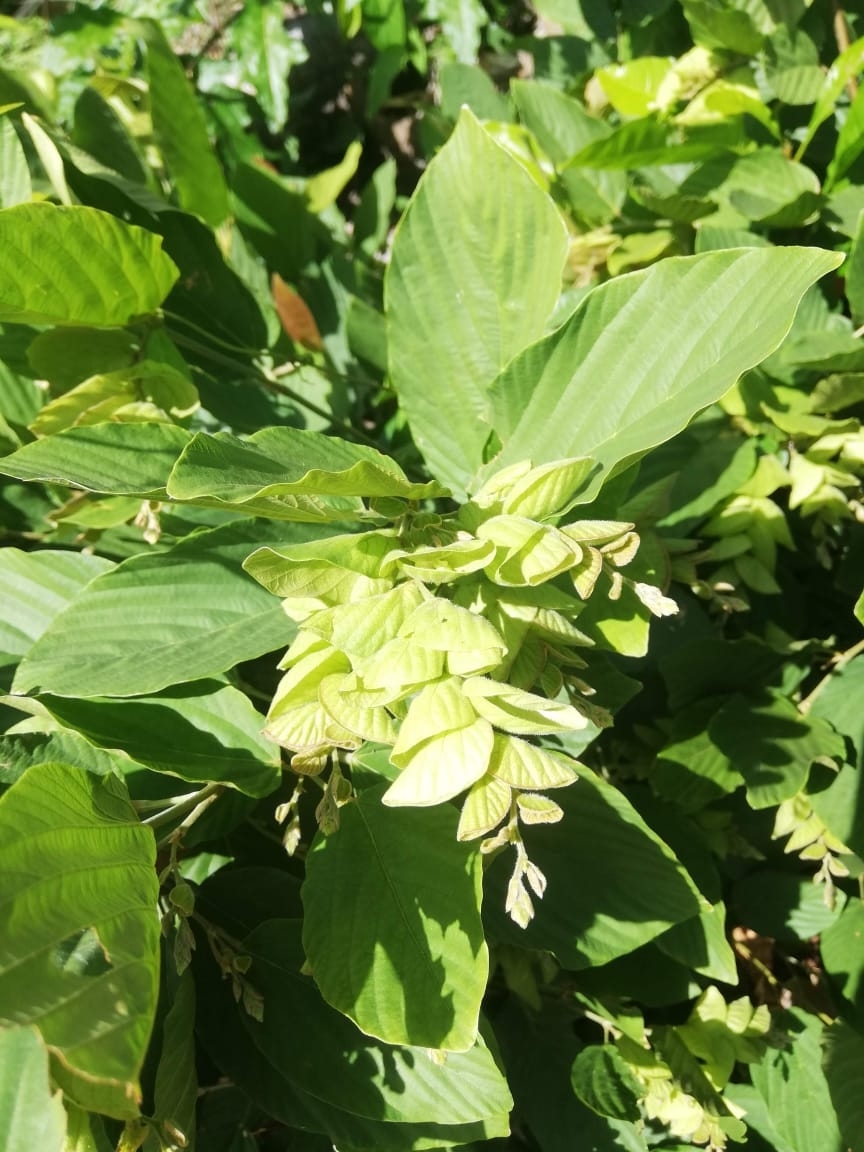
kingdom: Plantae
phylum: Tracheophyta
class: Magnoliopsida
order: Fabales
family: Fabaceae
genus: Flemingia
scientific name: Flemingia strobilifera
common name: Wild hops
